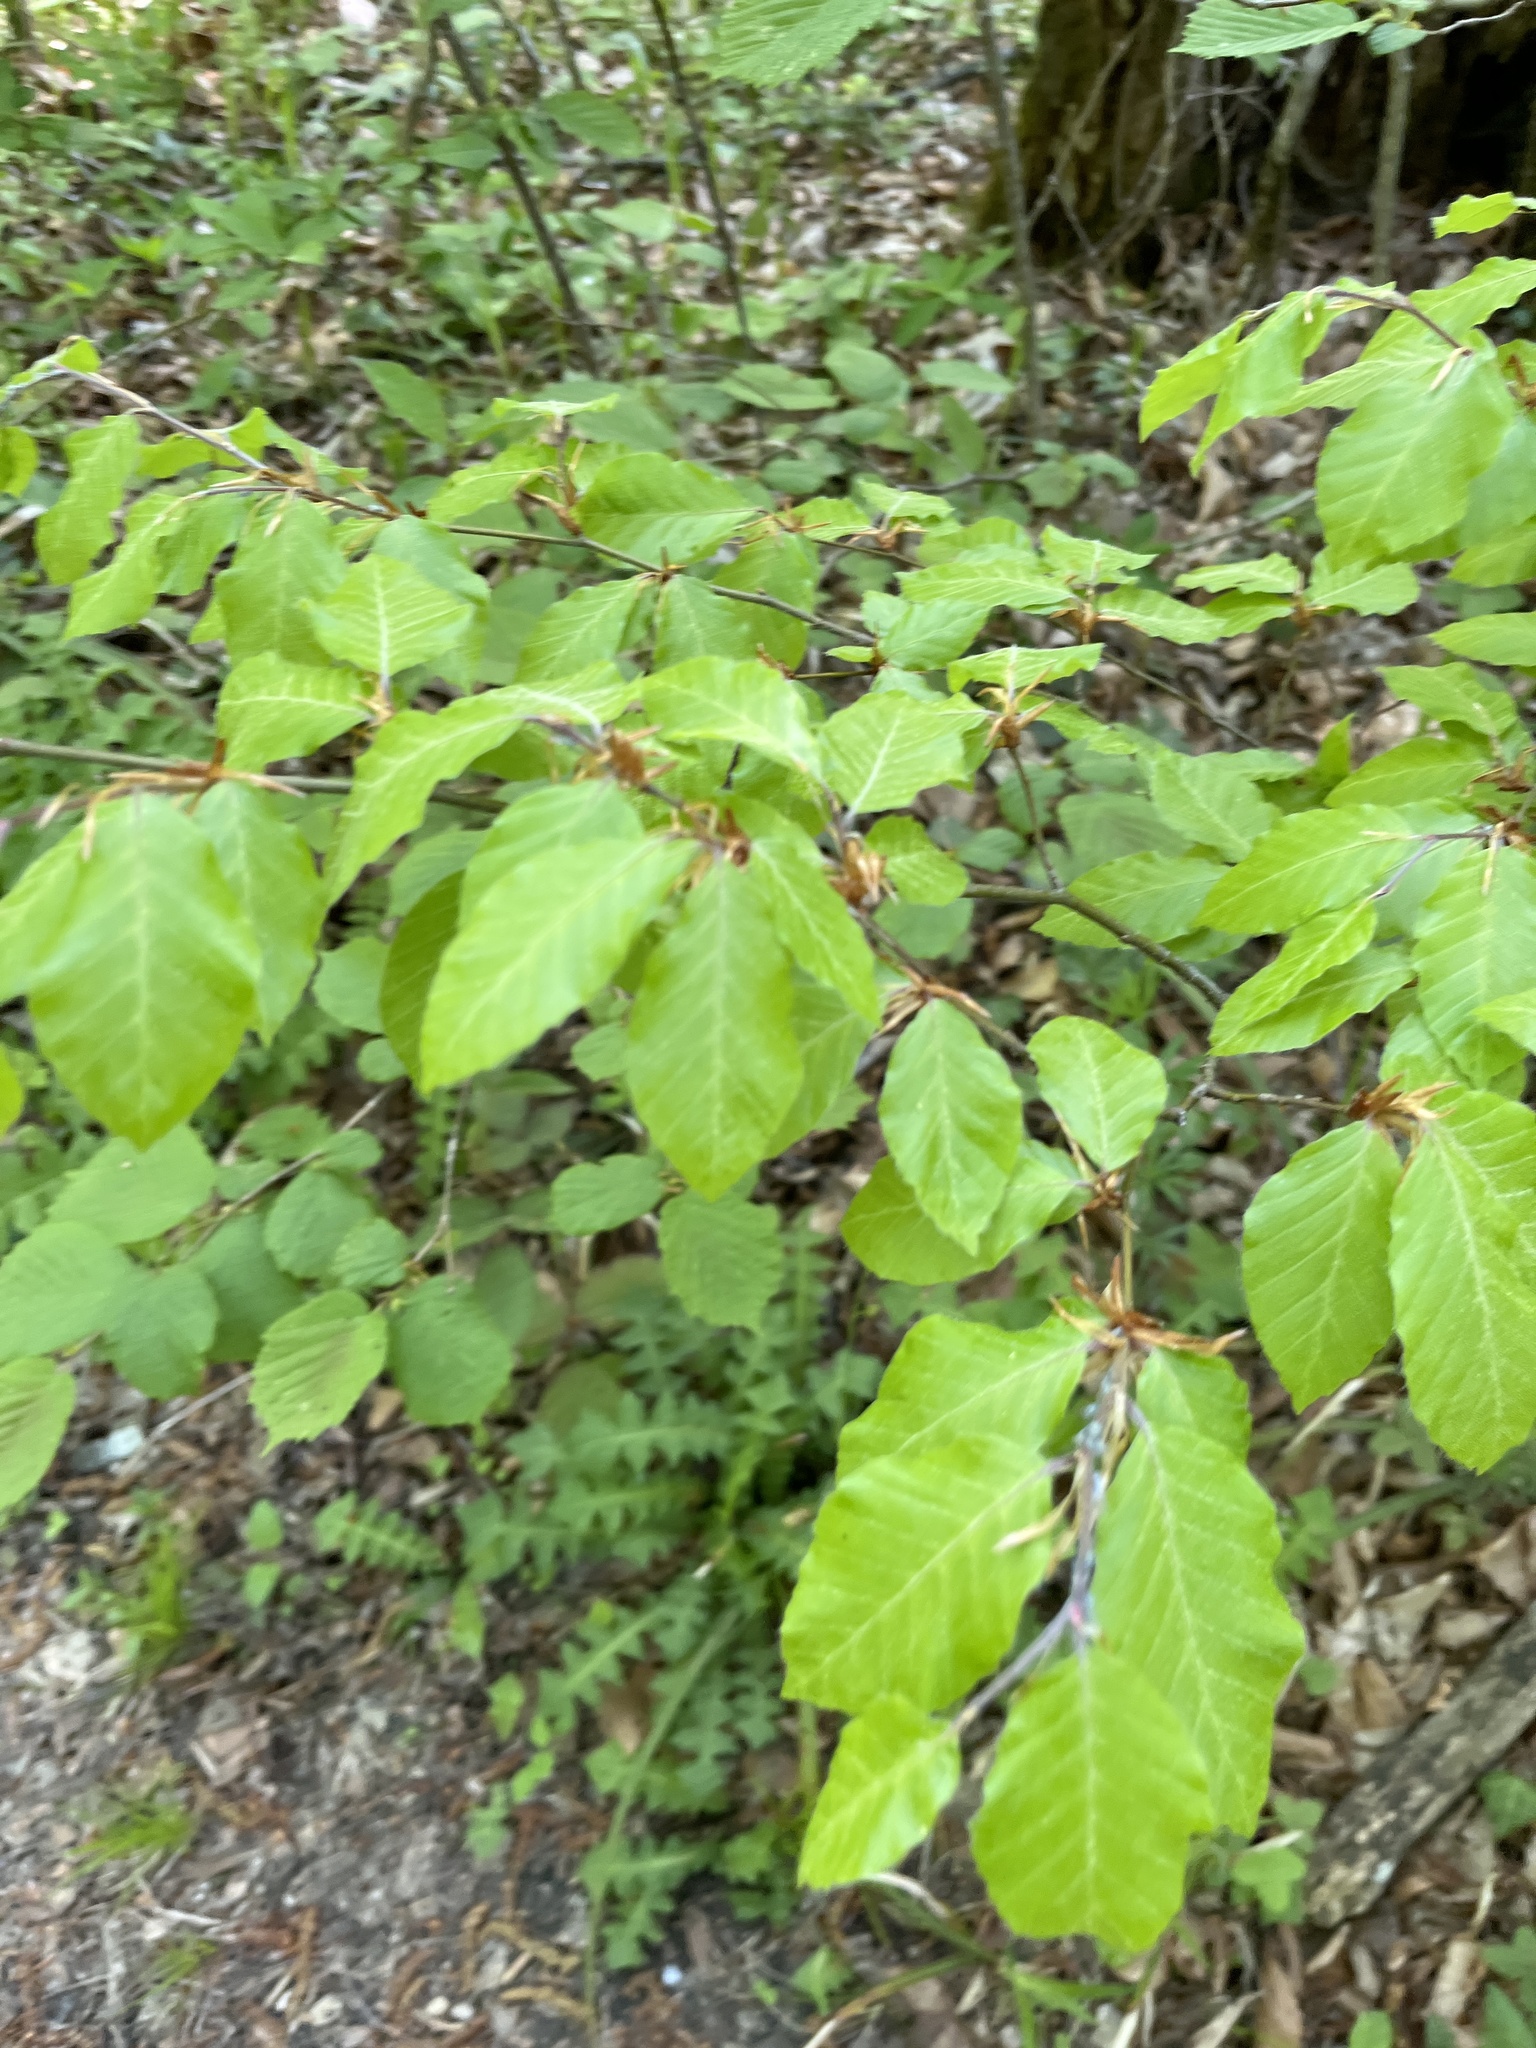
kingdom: Plantae
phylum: Tracheophyta
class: Magnoliopsida
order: Fagales
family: Fagaceae
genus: Fagus
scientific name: Fagus sylvatica
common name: Beech
